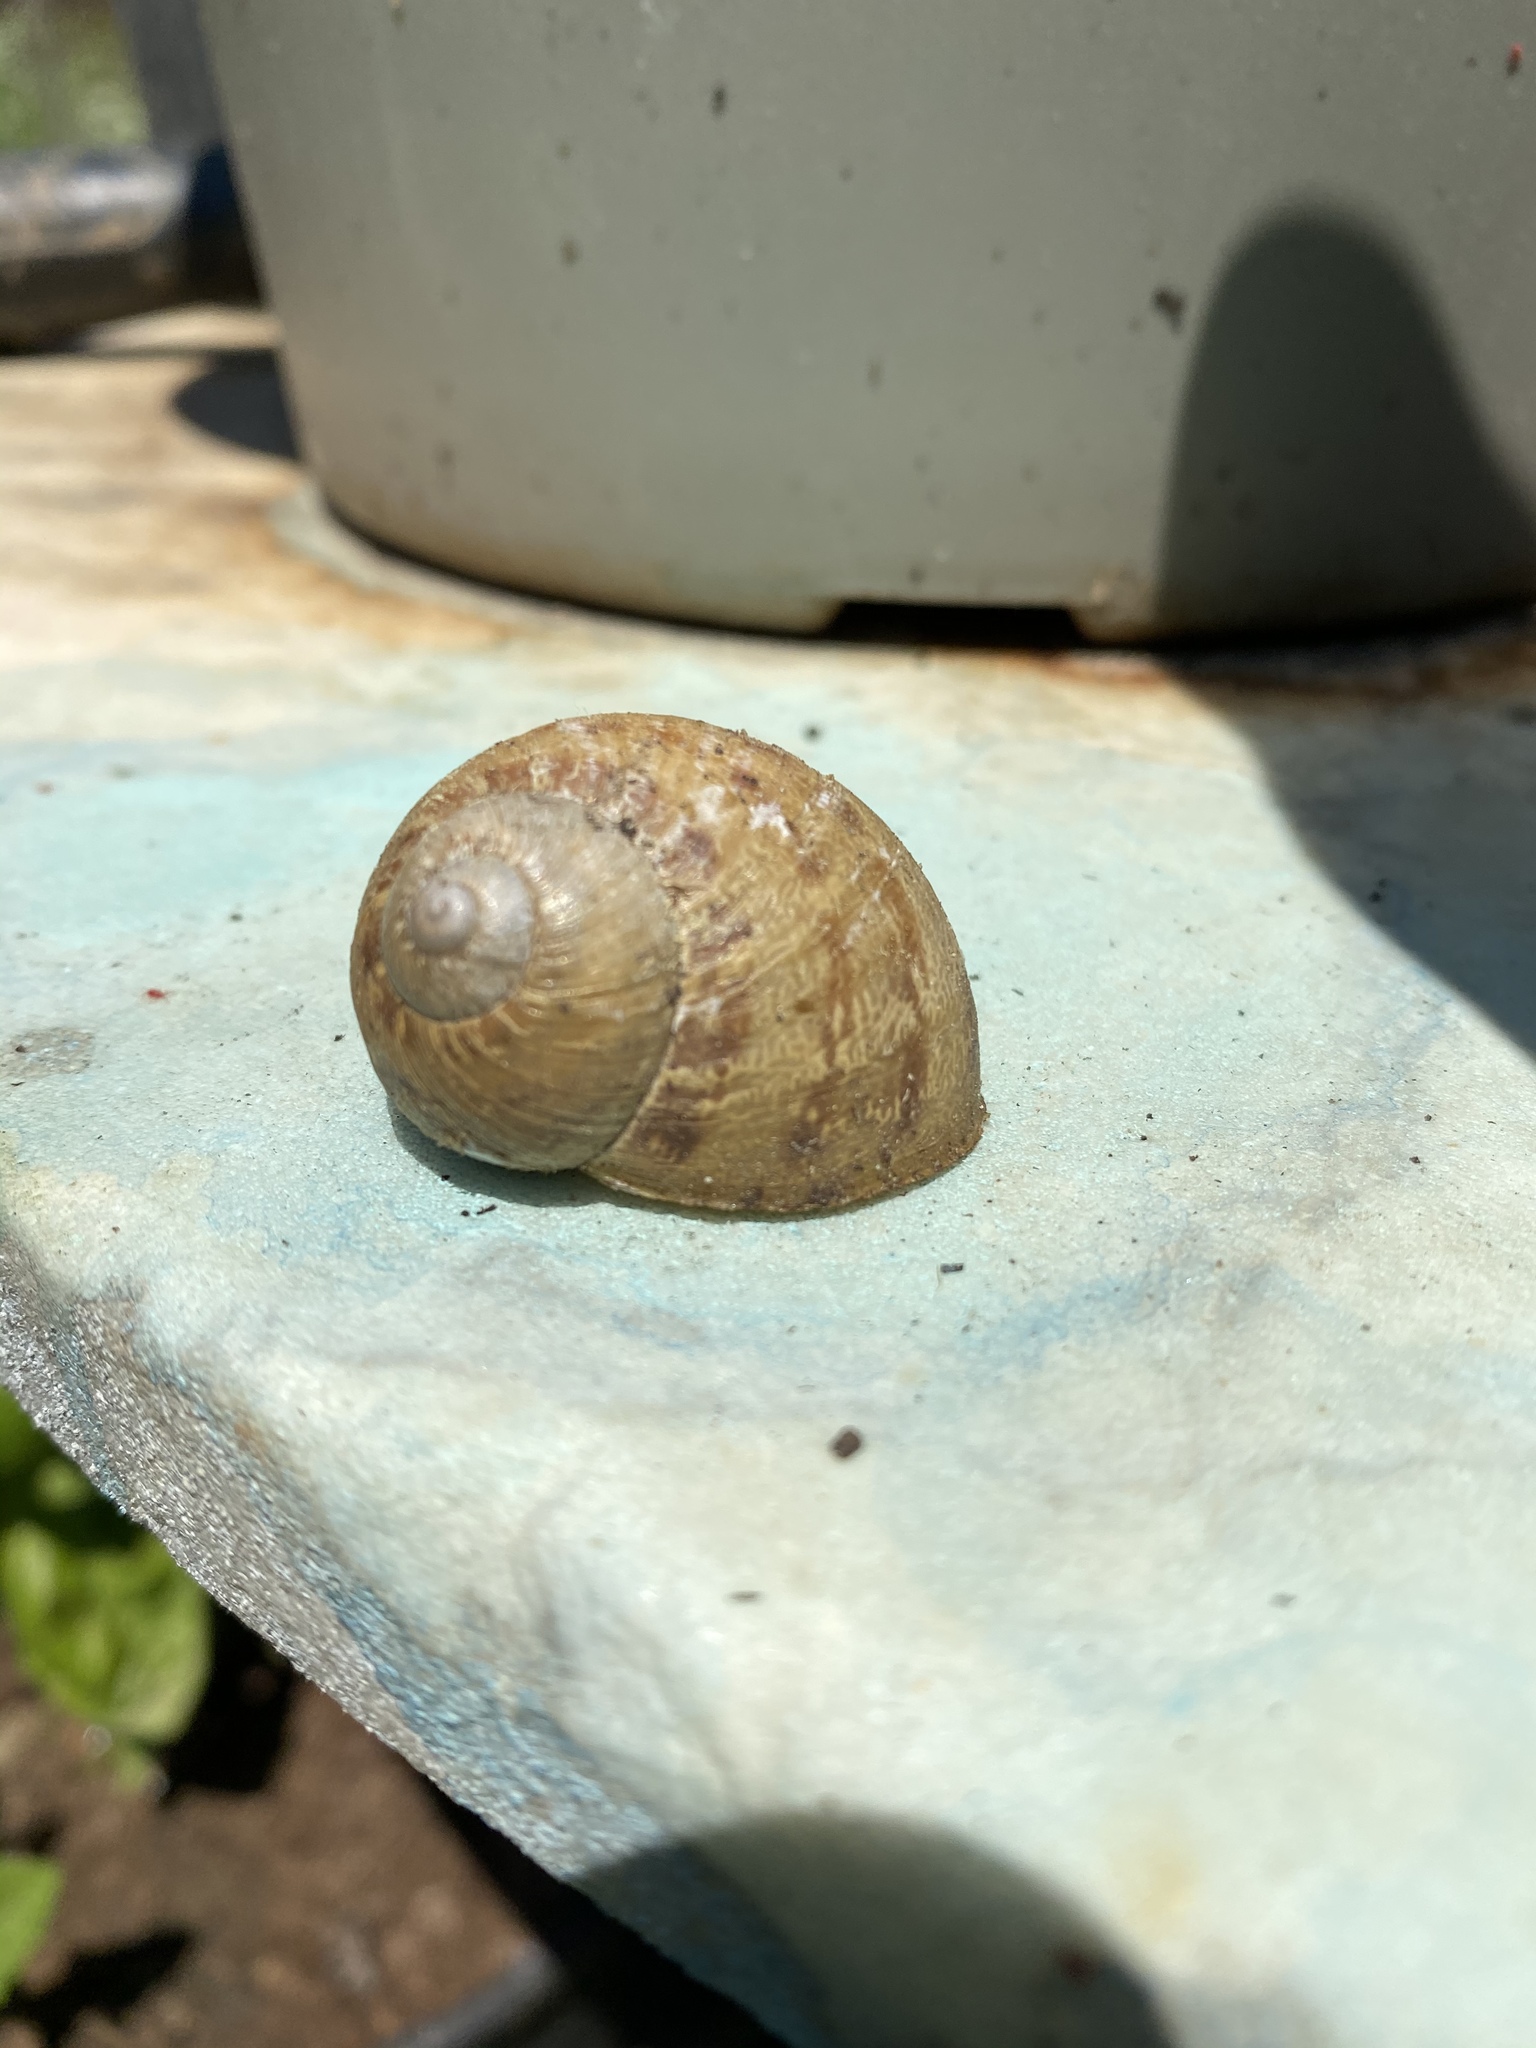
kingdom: Animalia
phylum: Mollusca
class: Gastropoda
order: Stylommatophora
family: Helicidae
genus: Cornu
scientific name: Cornu aspersum
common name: Brown garden snail
